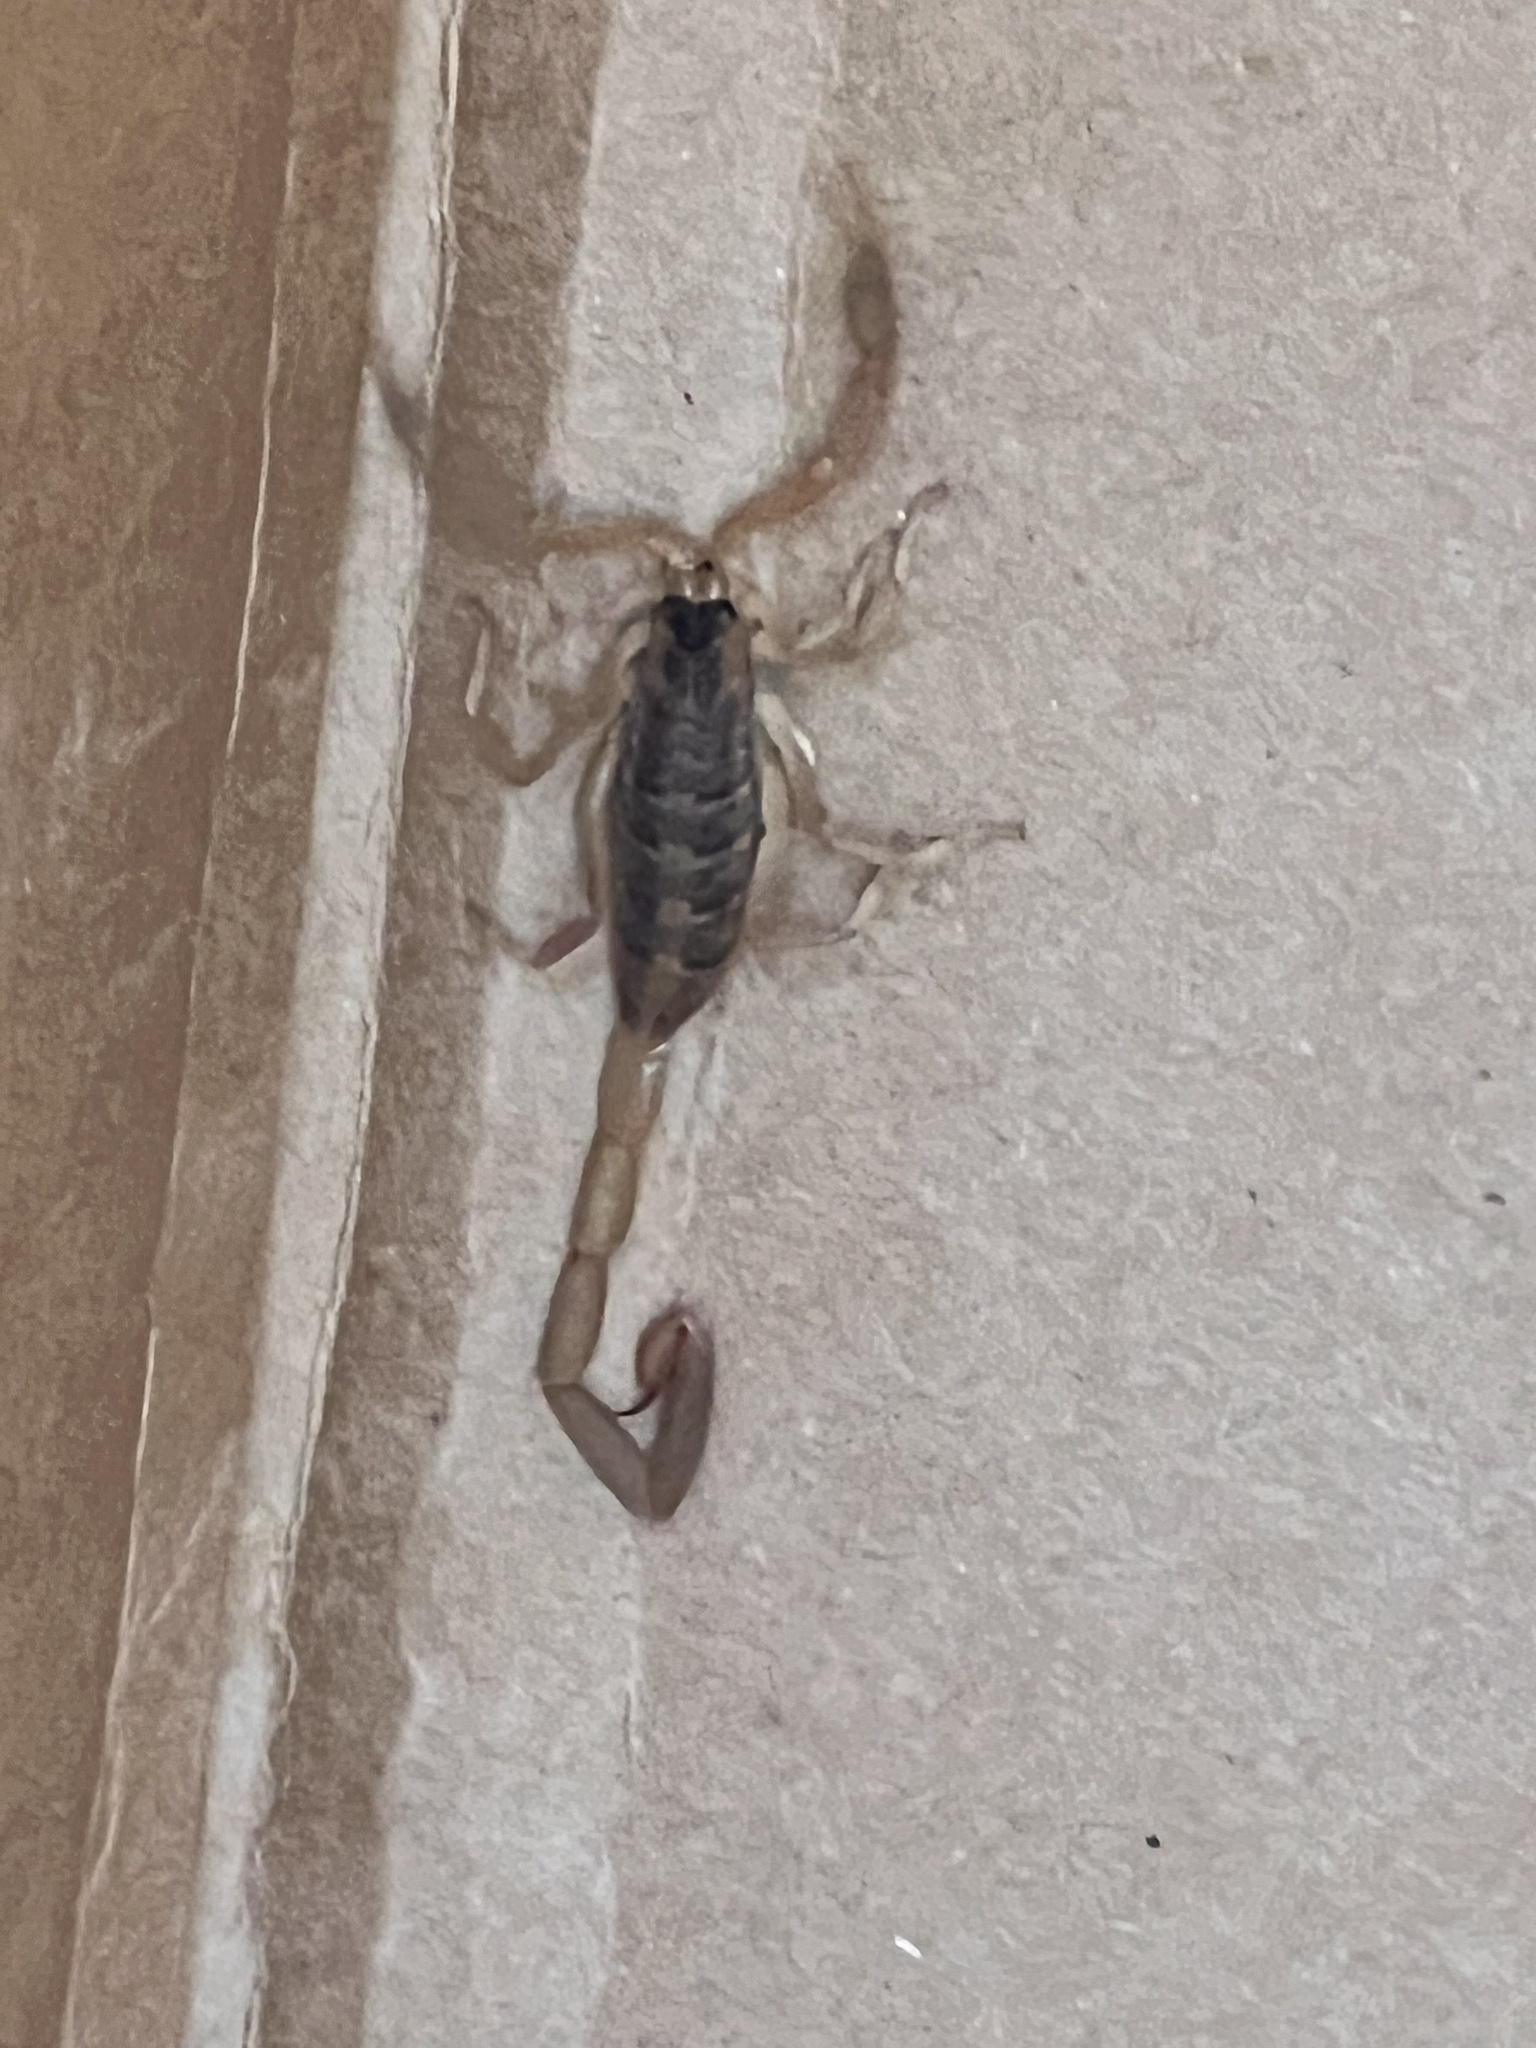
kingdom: Animalia
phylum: Arthropoda
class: Arachnida
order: Scorpiones
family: Buthidae
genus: Centruroides
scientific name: Centruroides vittatus
